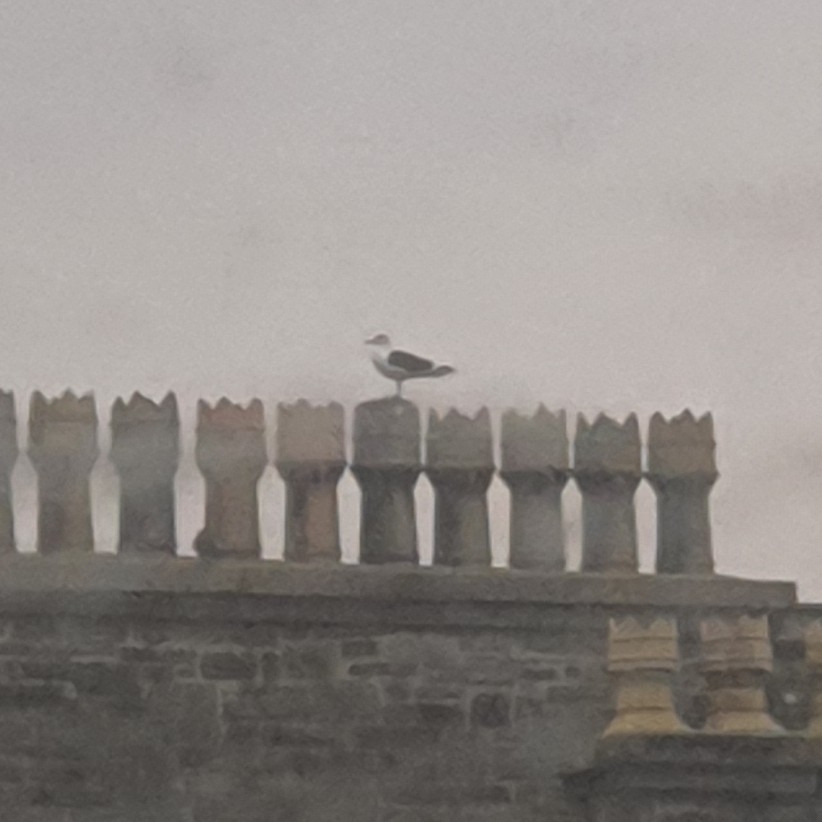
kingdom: Animalia
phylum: Chordata
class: Aves
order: Charadriiformes
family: Laridae
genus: Larus
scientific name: Larus marinus
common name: Great black-backed gull
